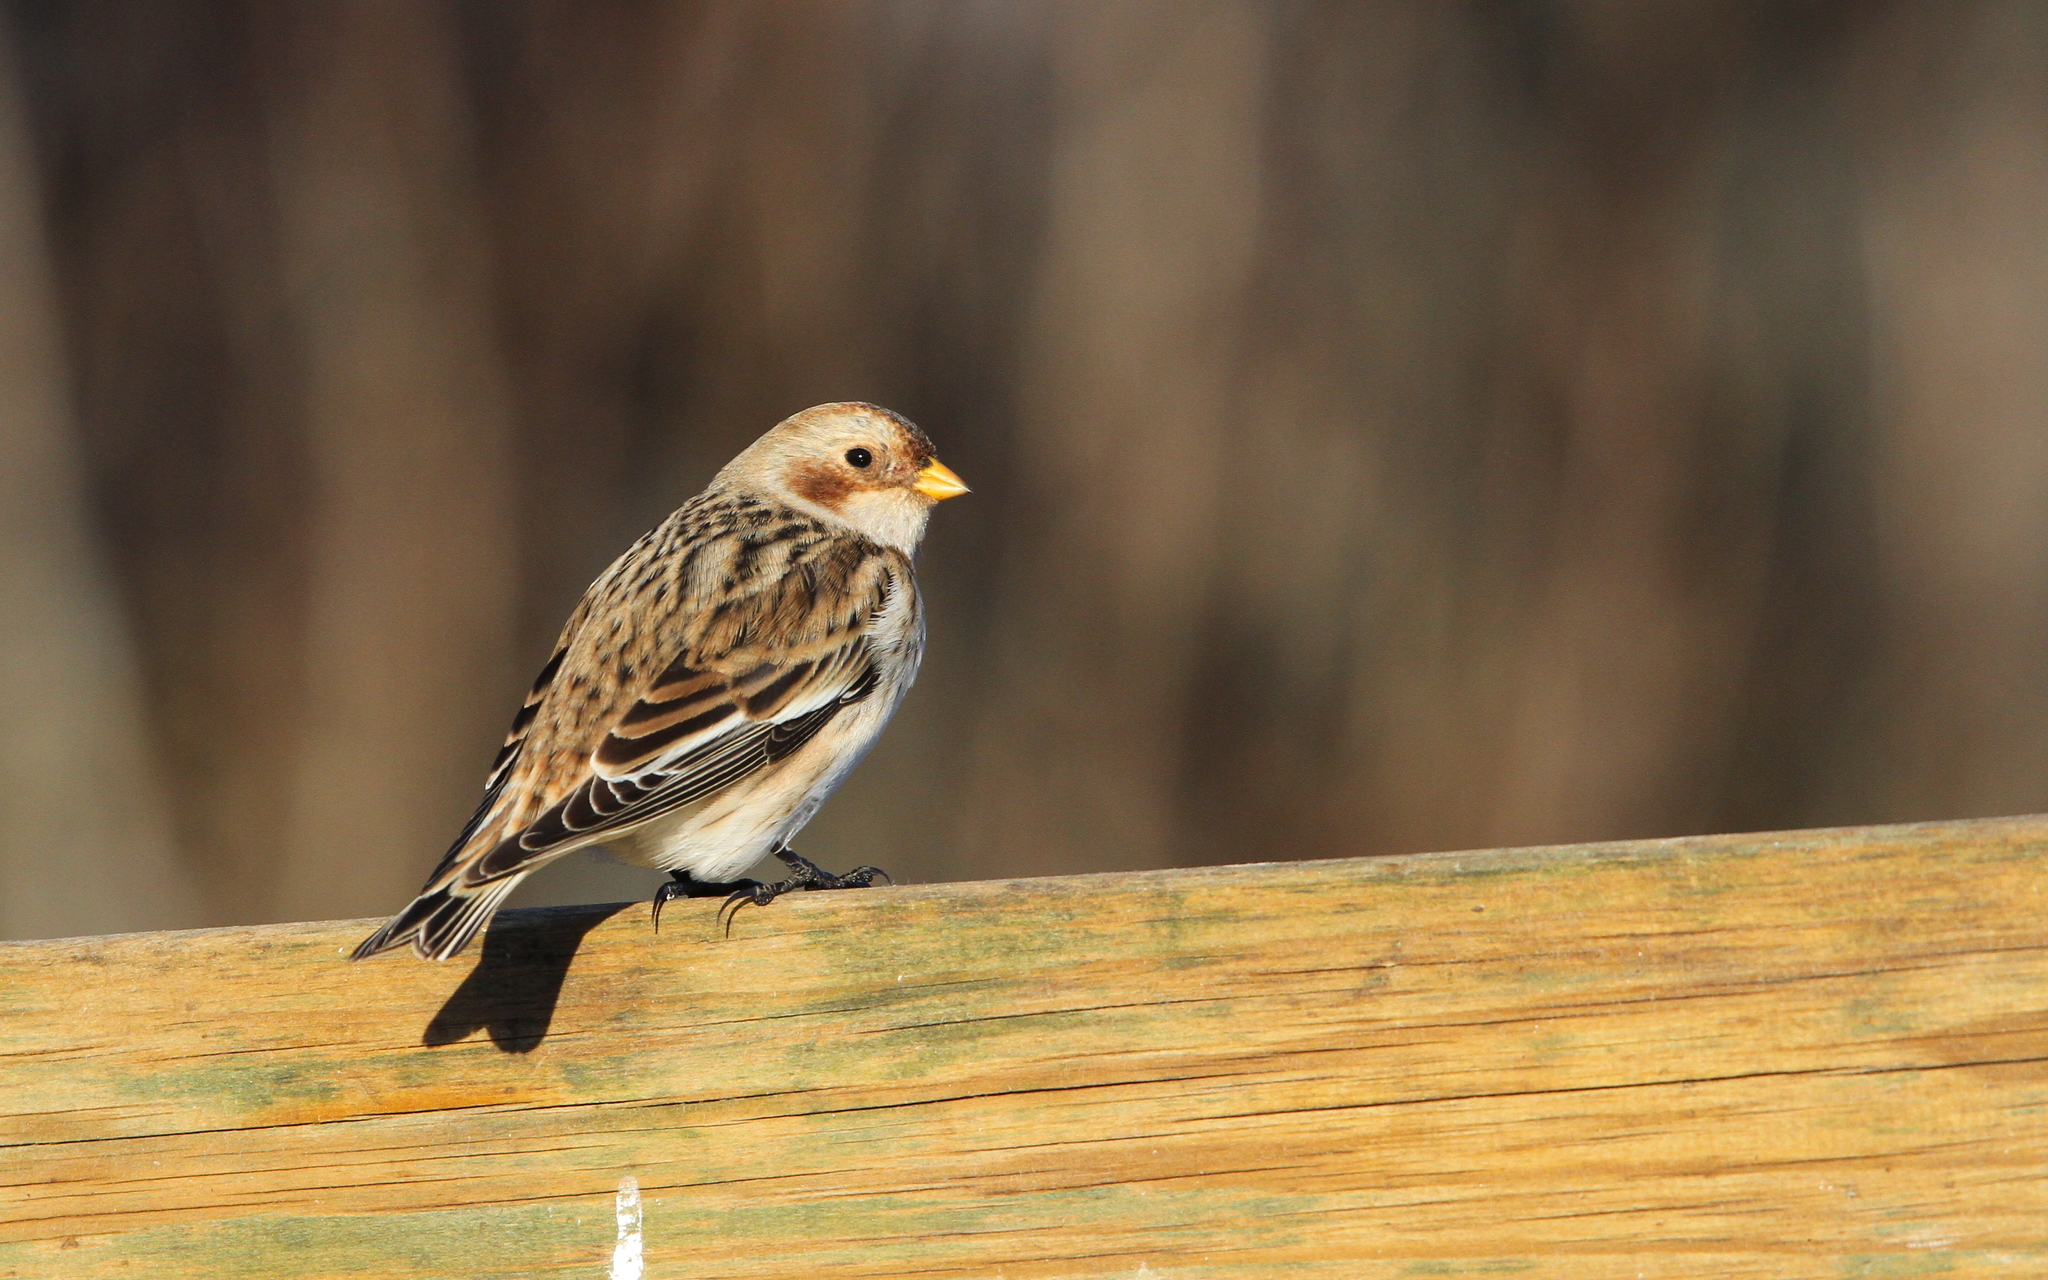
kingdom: Animalia
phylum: Chordata
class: Aves
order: Passeriformes
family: Calcariidae
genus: Plectrophenax
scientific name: Plectrophenax nivalis
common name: Snow bunting
